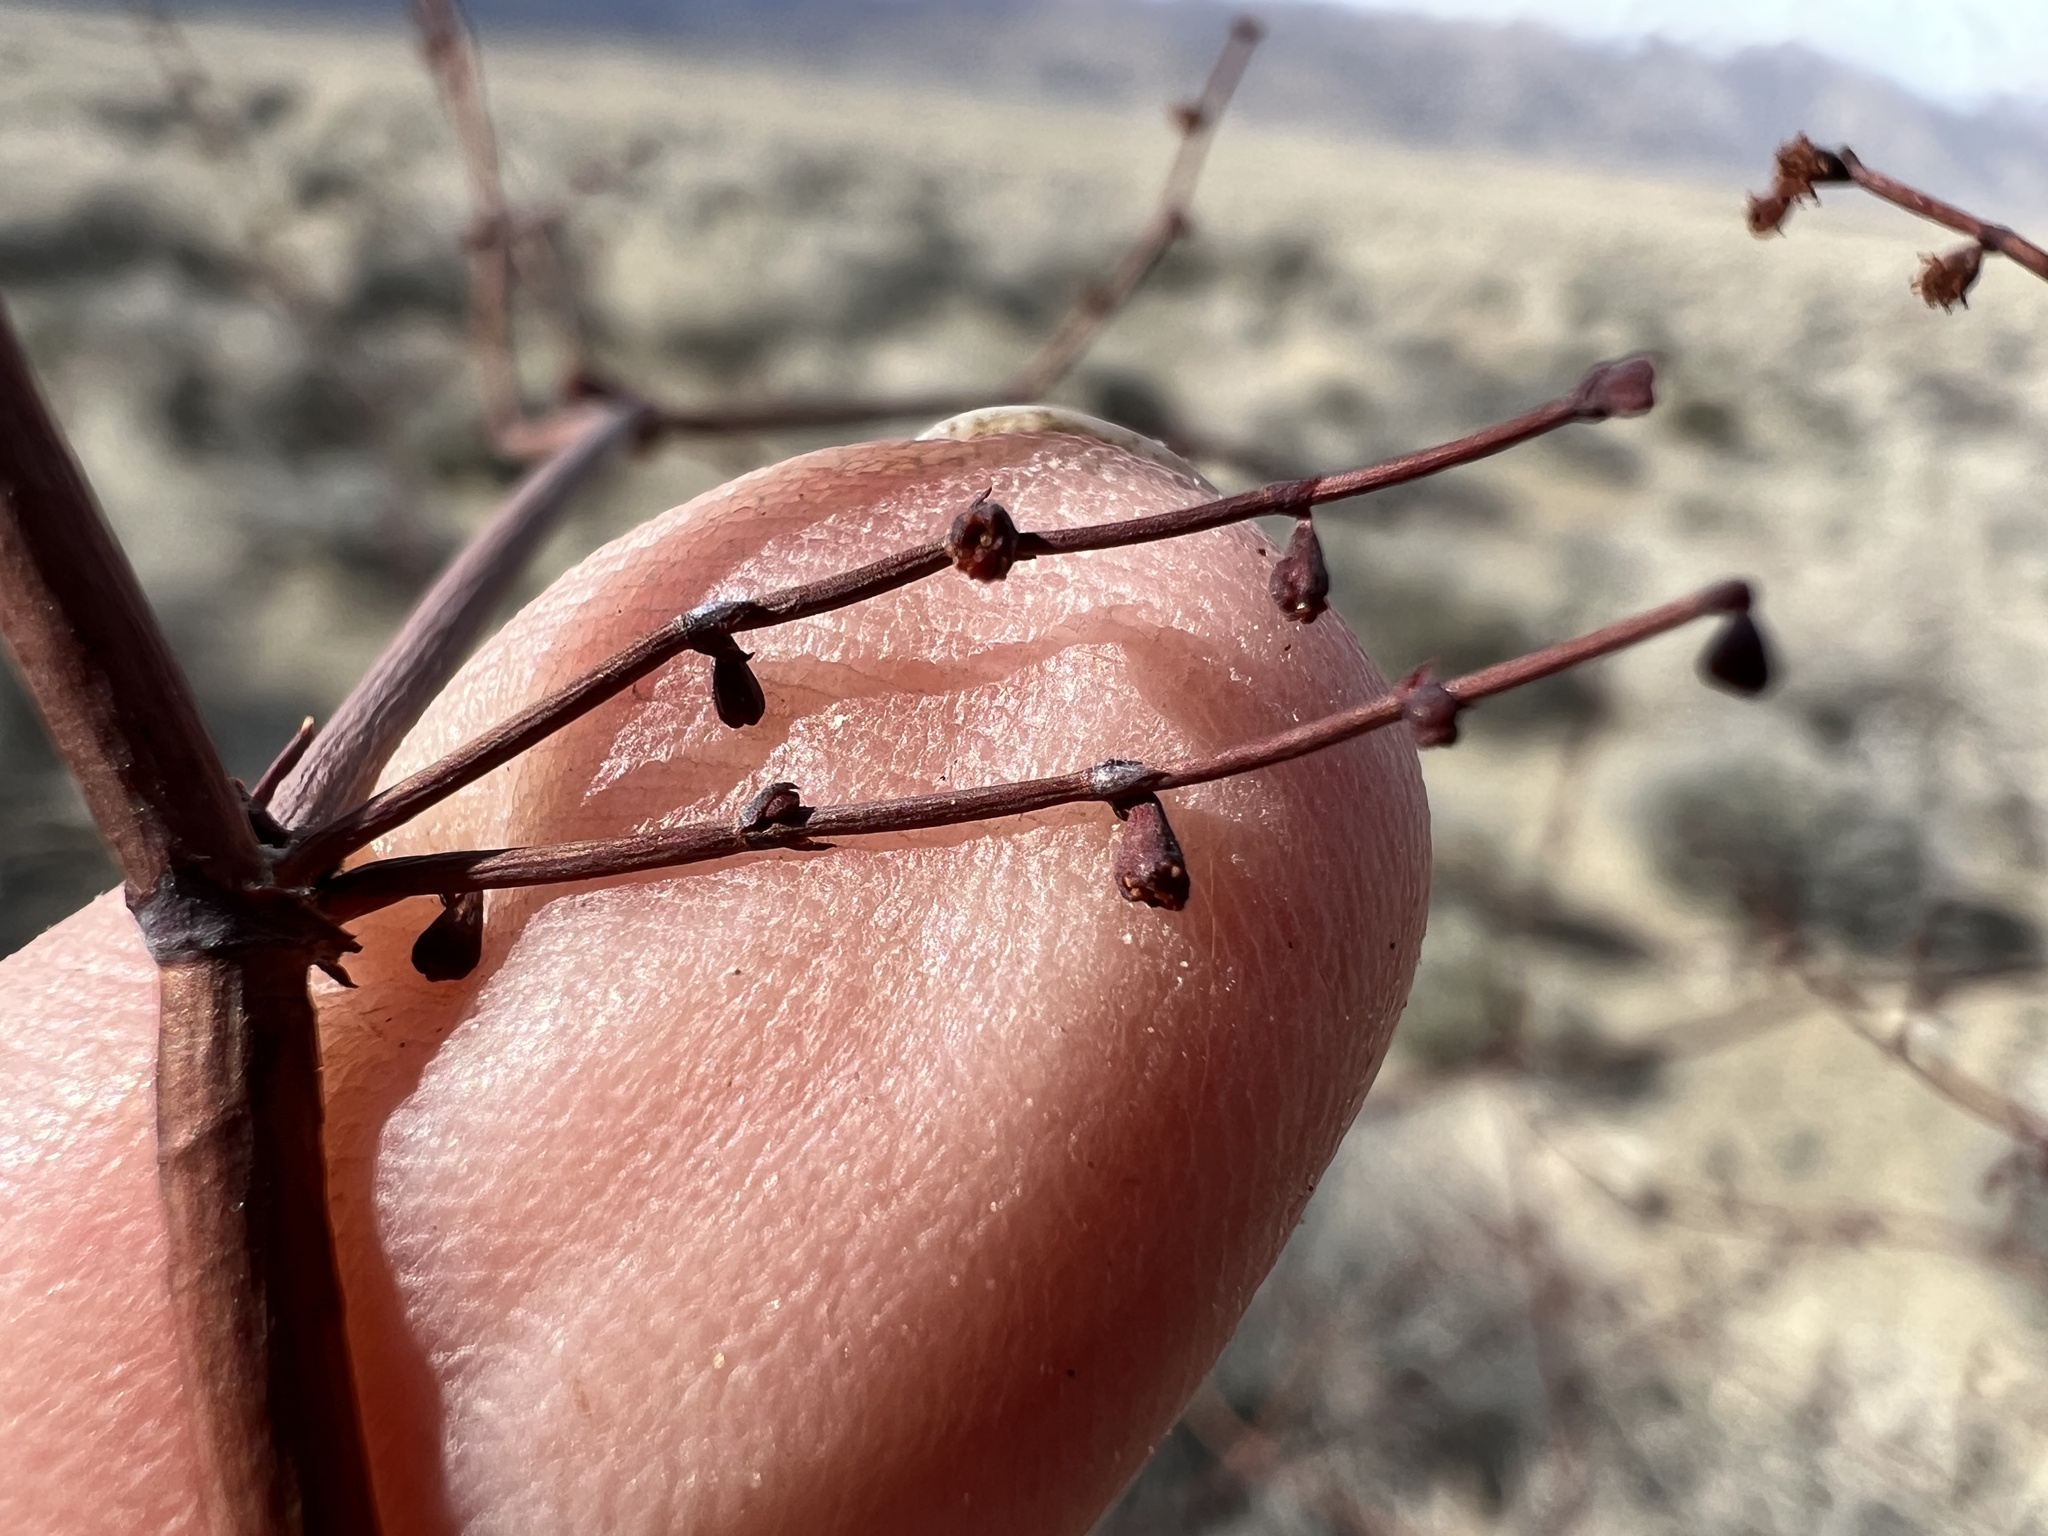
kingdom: Plantae
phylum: Tracheophyta
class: Magnoliopsida
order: Caryophyllales
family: Polygonaceae
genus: Eriogonum
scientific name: Eriogonum deflexum
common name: Skeleton-weed
